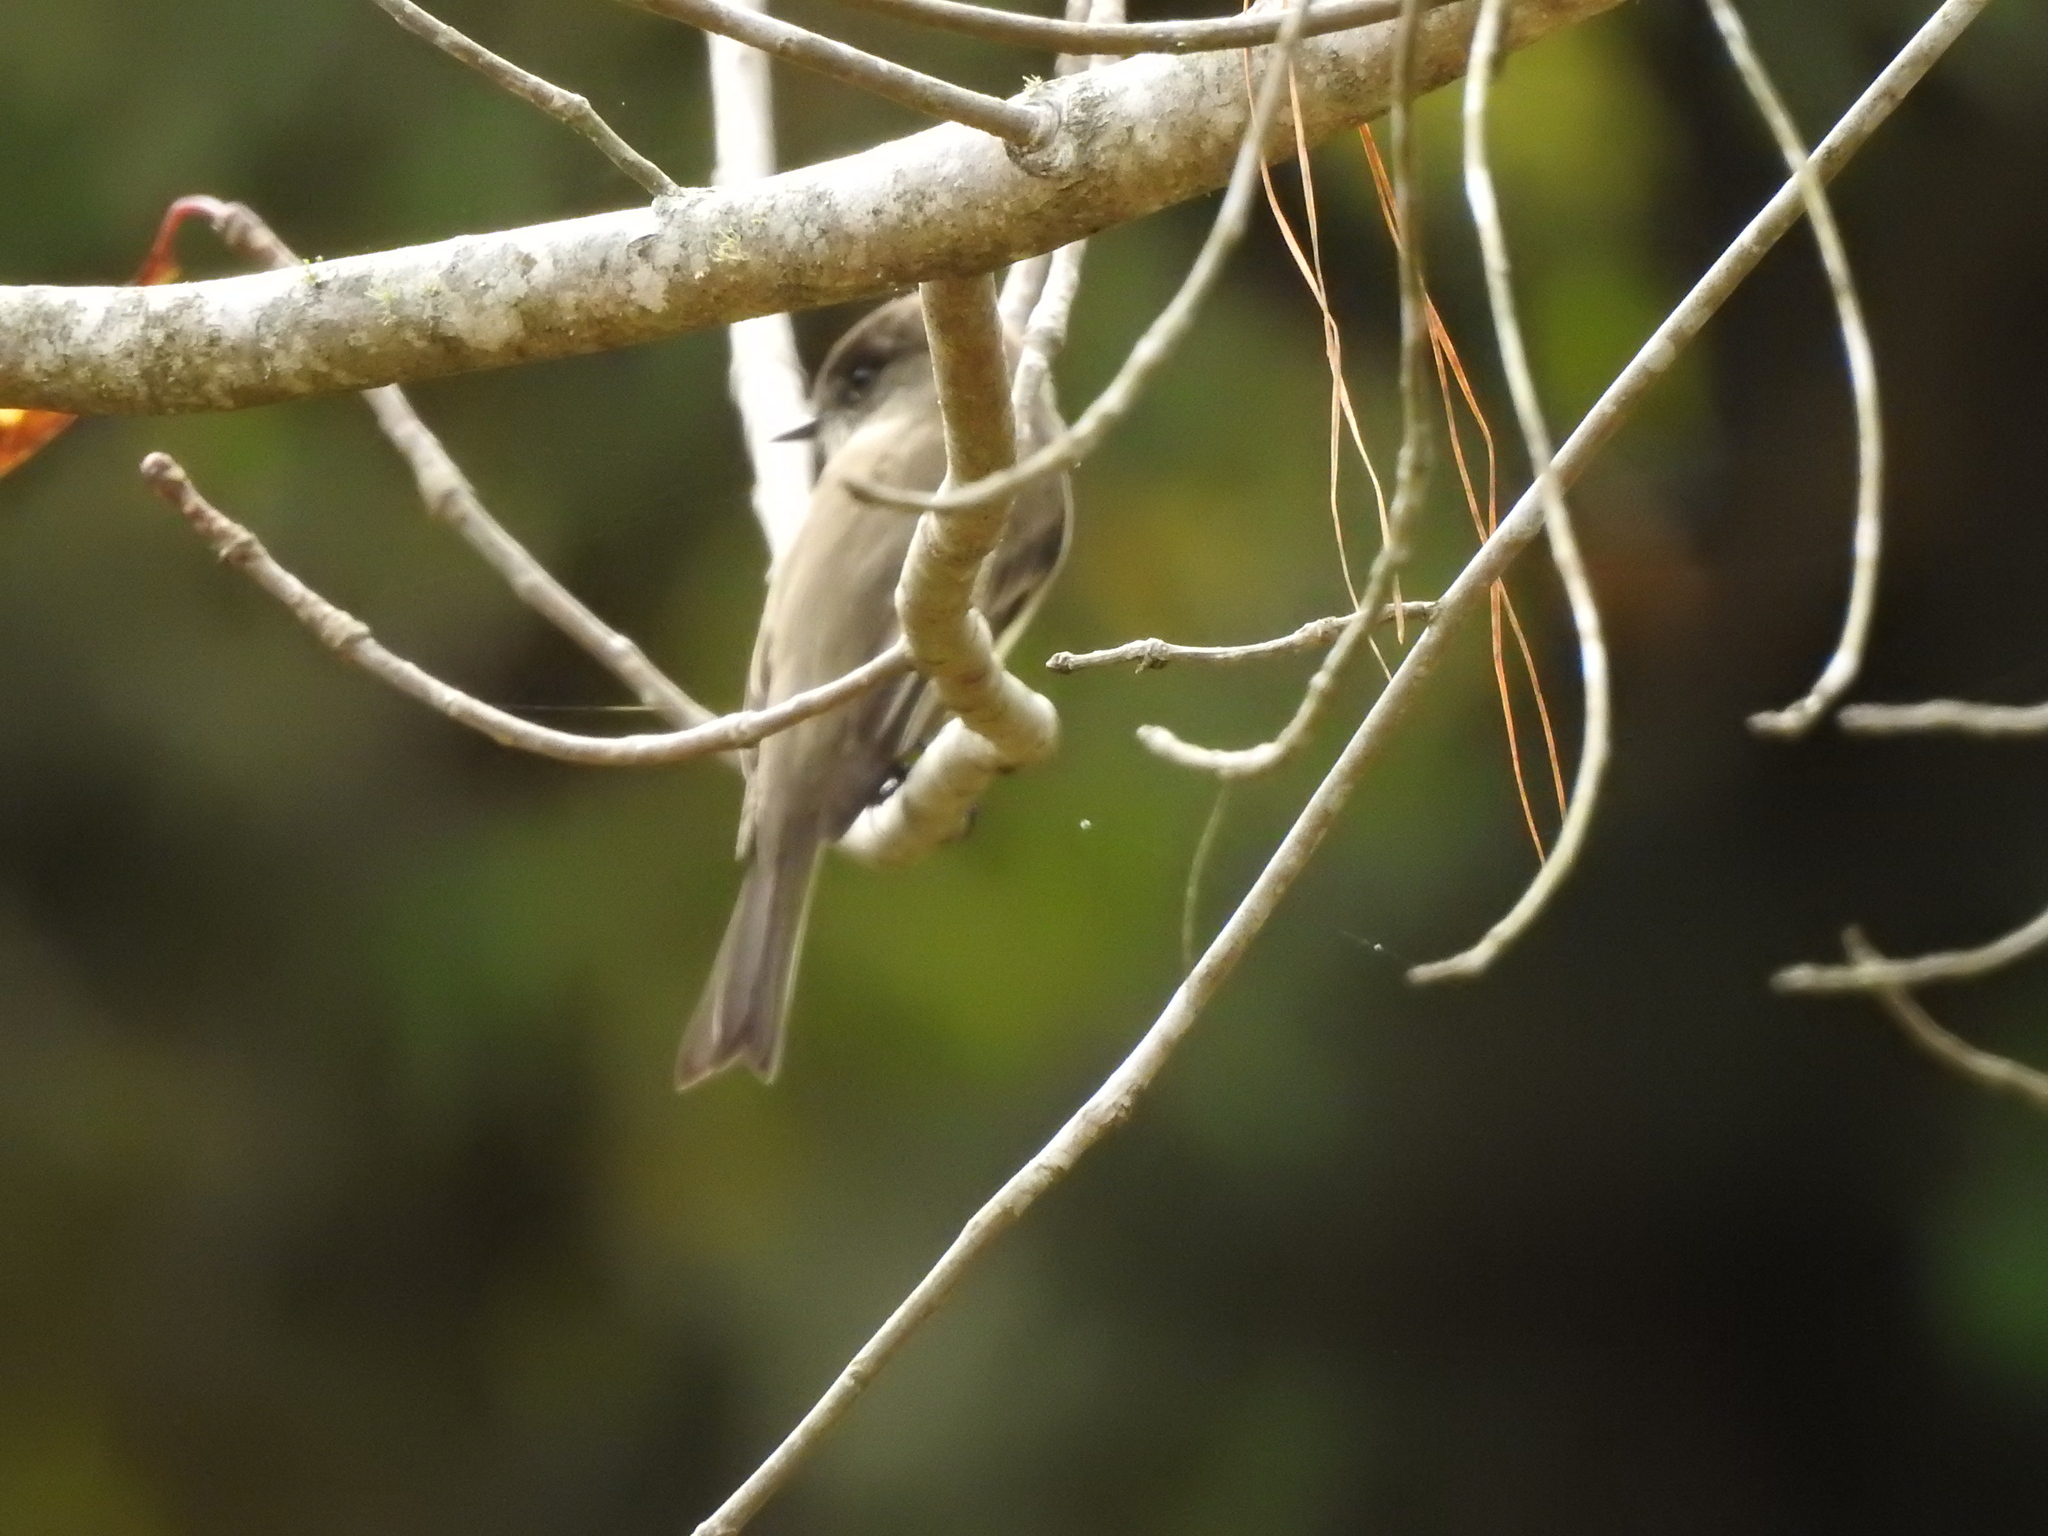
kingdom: Animalia
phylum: Chordata
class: Aves
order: Passeriformes
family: Tyrannidae
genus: Sayornis
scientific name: Sayornis phoebe
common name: Eastern phoebe
